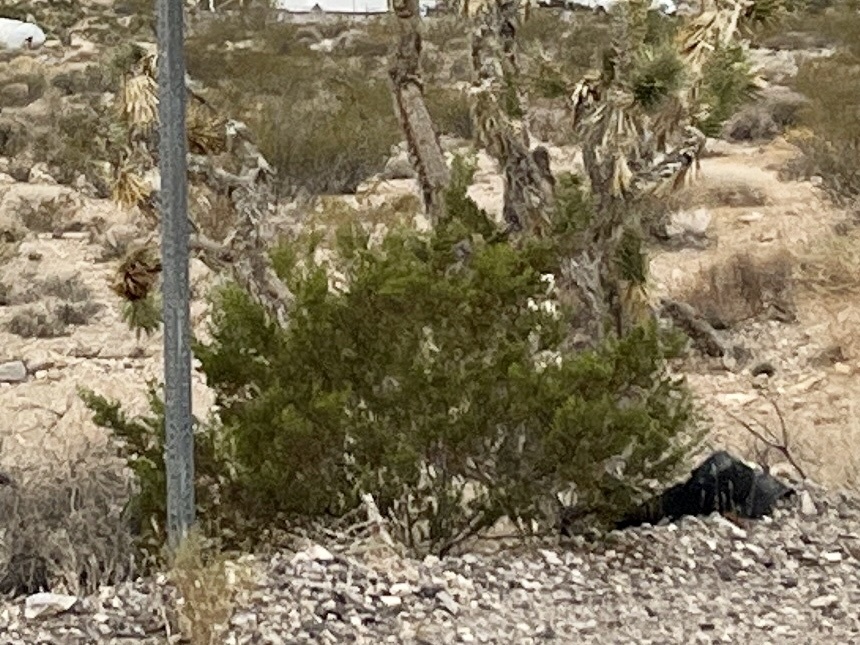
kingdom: Plantae
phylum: Tracheophyta
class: Magnoliopsida
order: Zygophyllales
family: Zygophyllaceae
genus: Larrea
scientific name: Larrea tridentata
